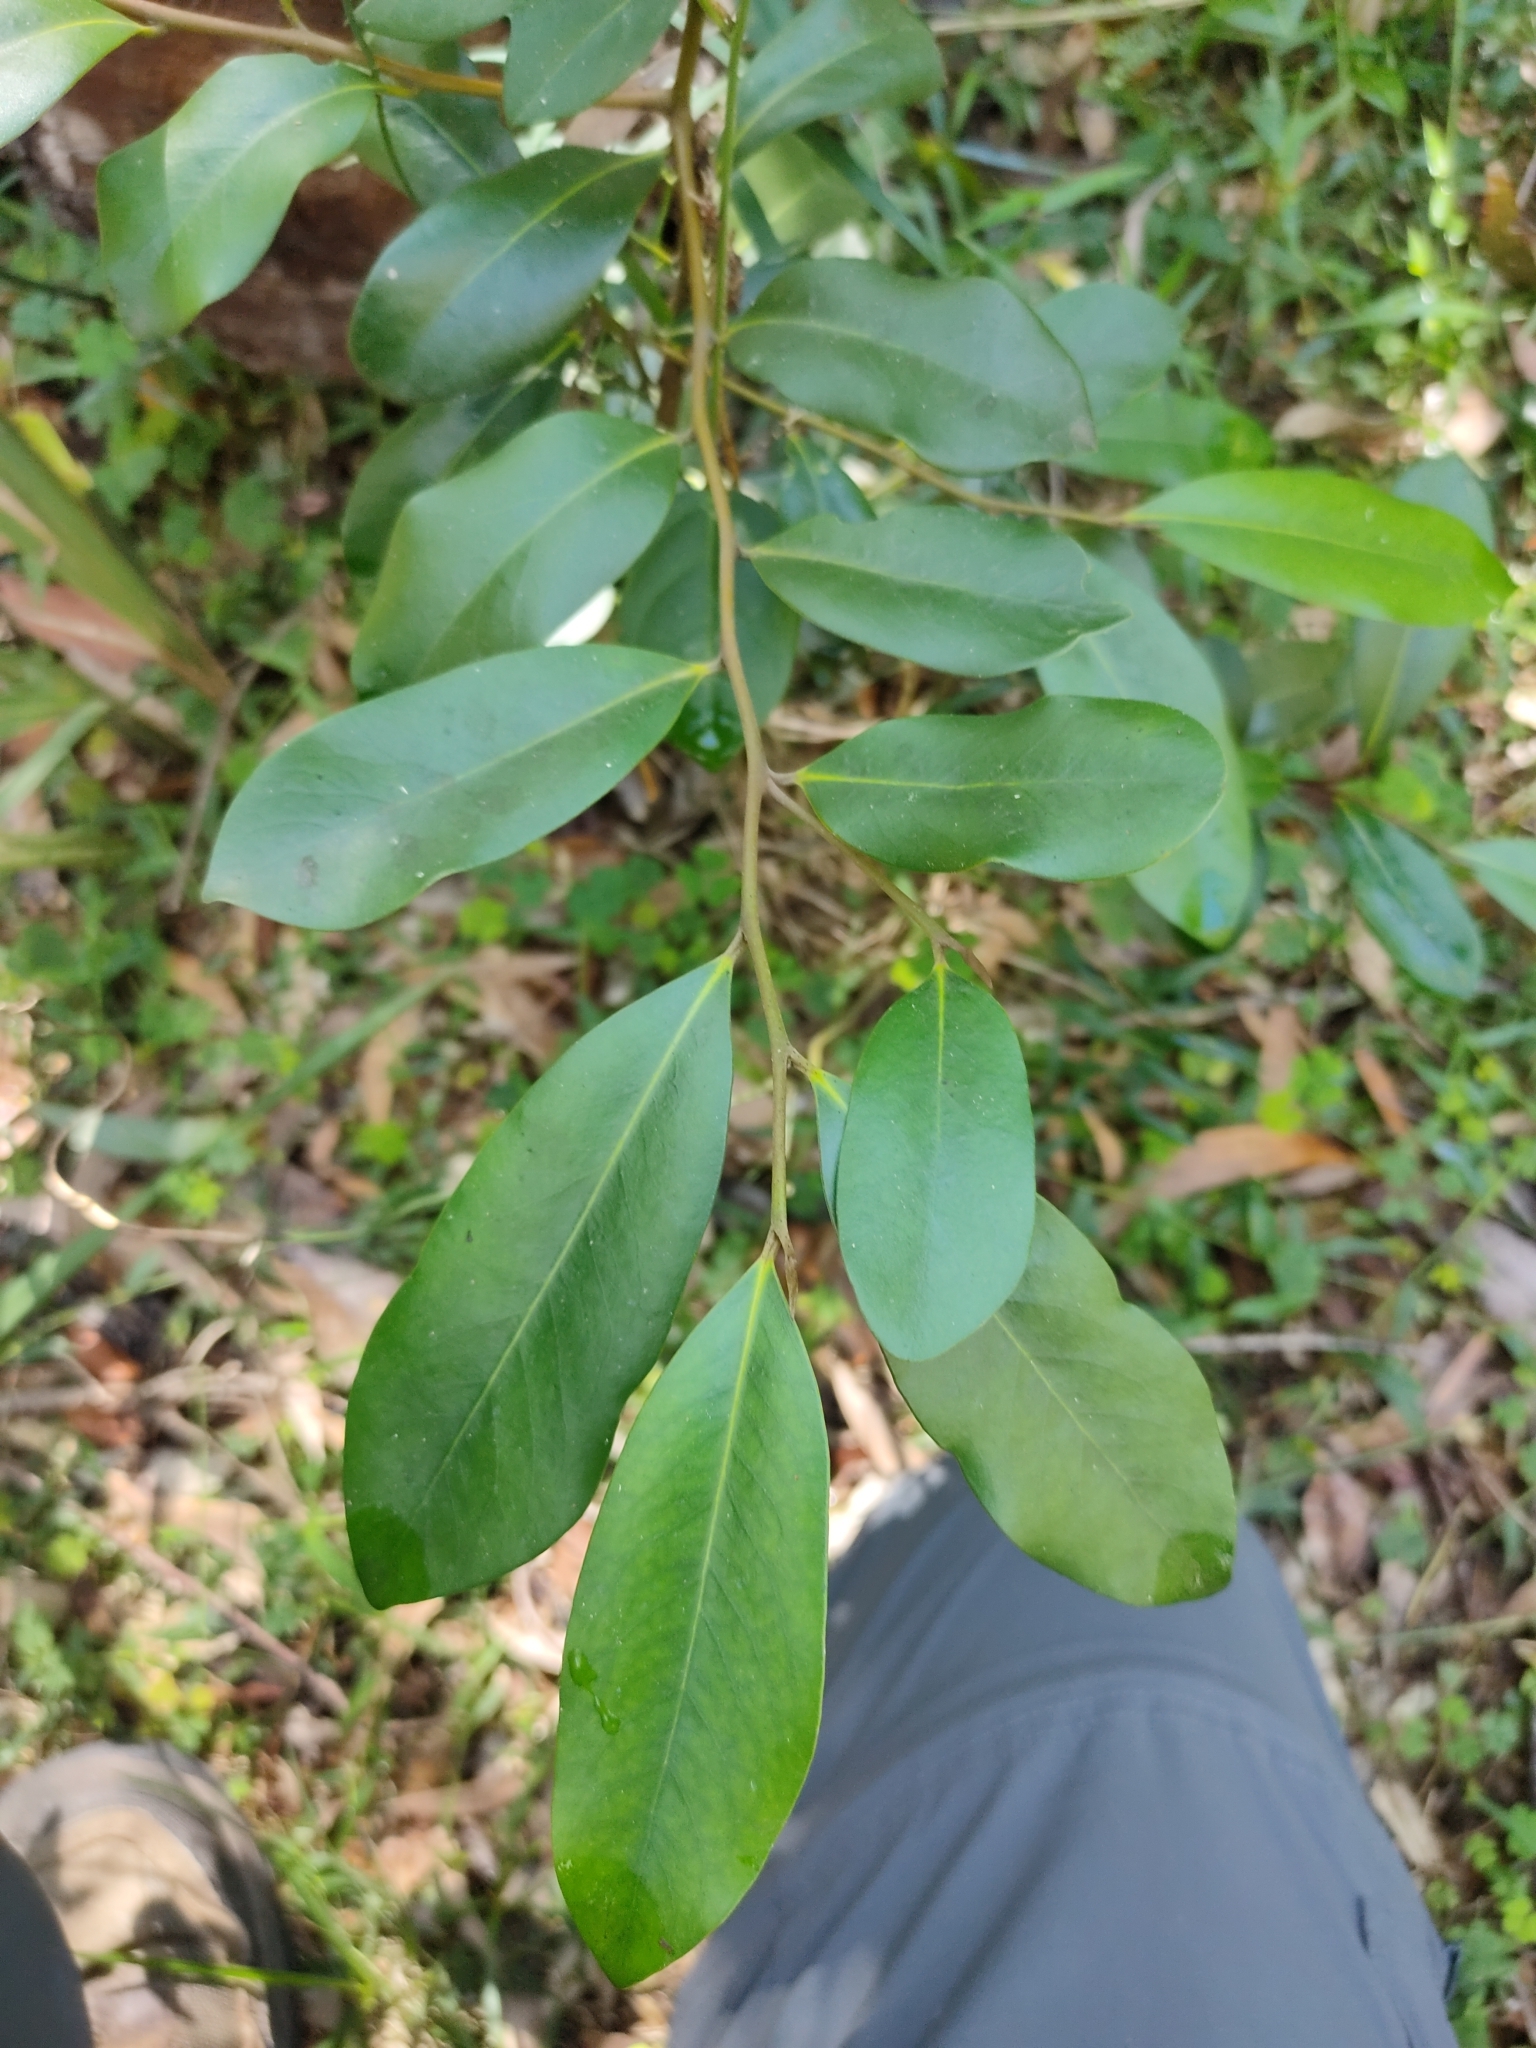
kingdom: Plantae
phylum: Tracheophyta
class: Magnoliopsida
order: Ericales
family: Ebenaceae
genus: Diospyros
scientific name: Diospyros australis
